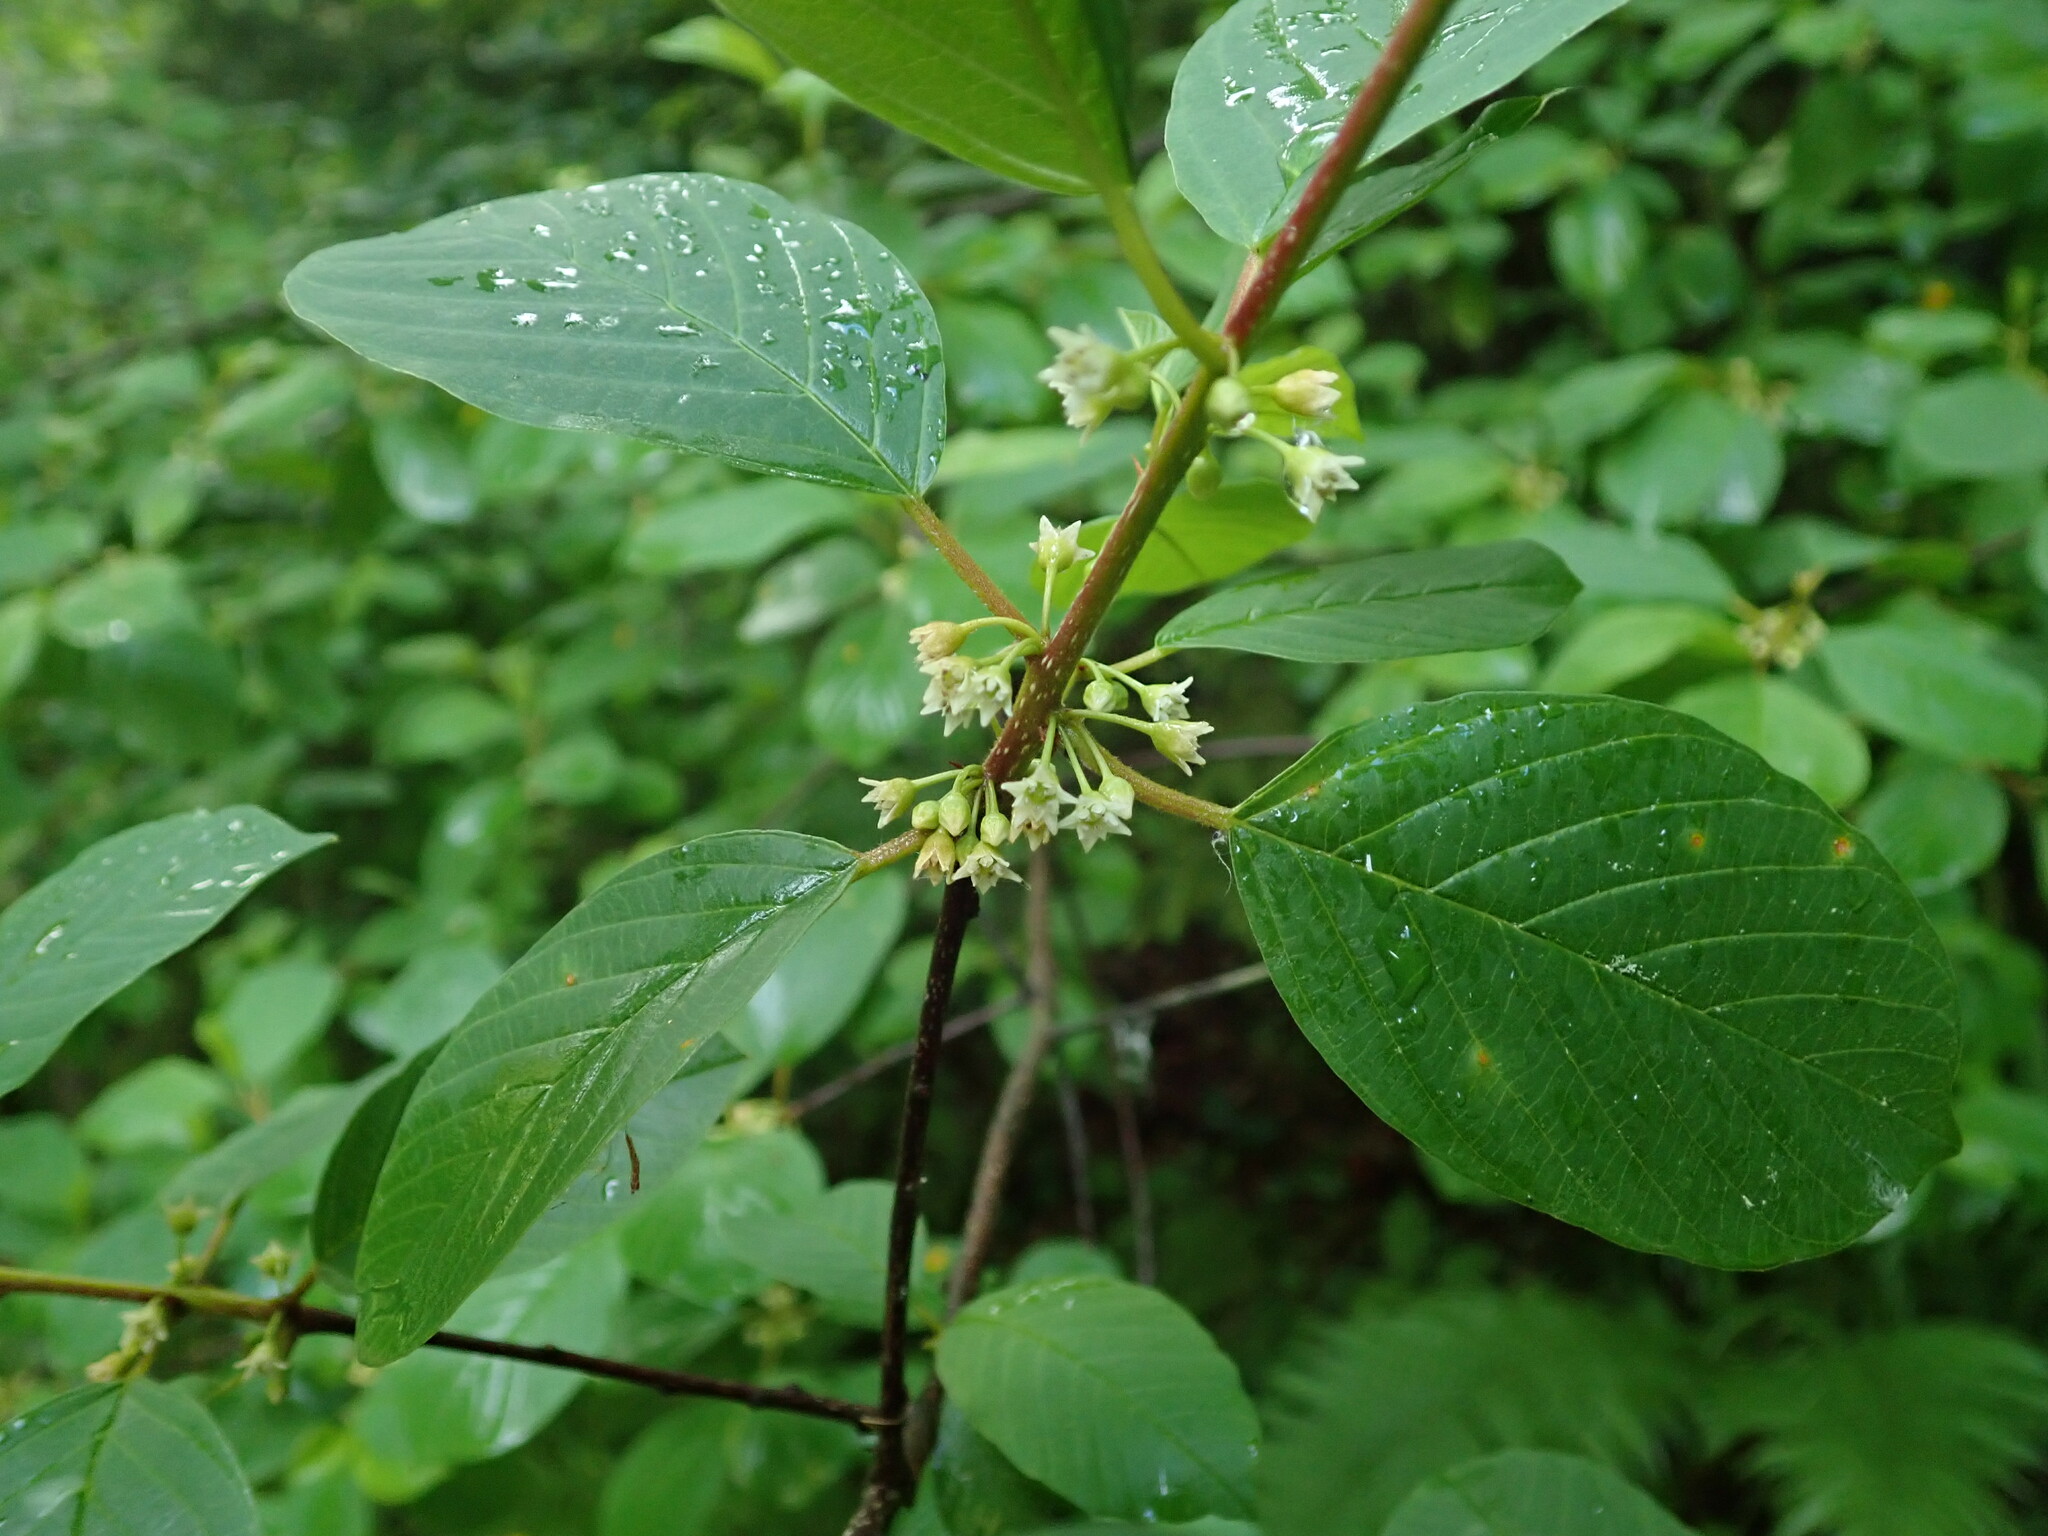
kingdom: Plantae
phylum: Tracheophyta
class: Magnoliopsida
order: Rosales
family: Rhamnaceae
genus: Frangula
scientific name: Frangula alnus
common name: Alder buckthorn
